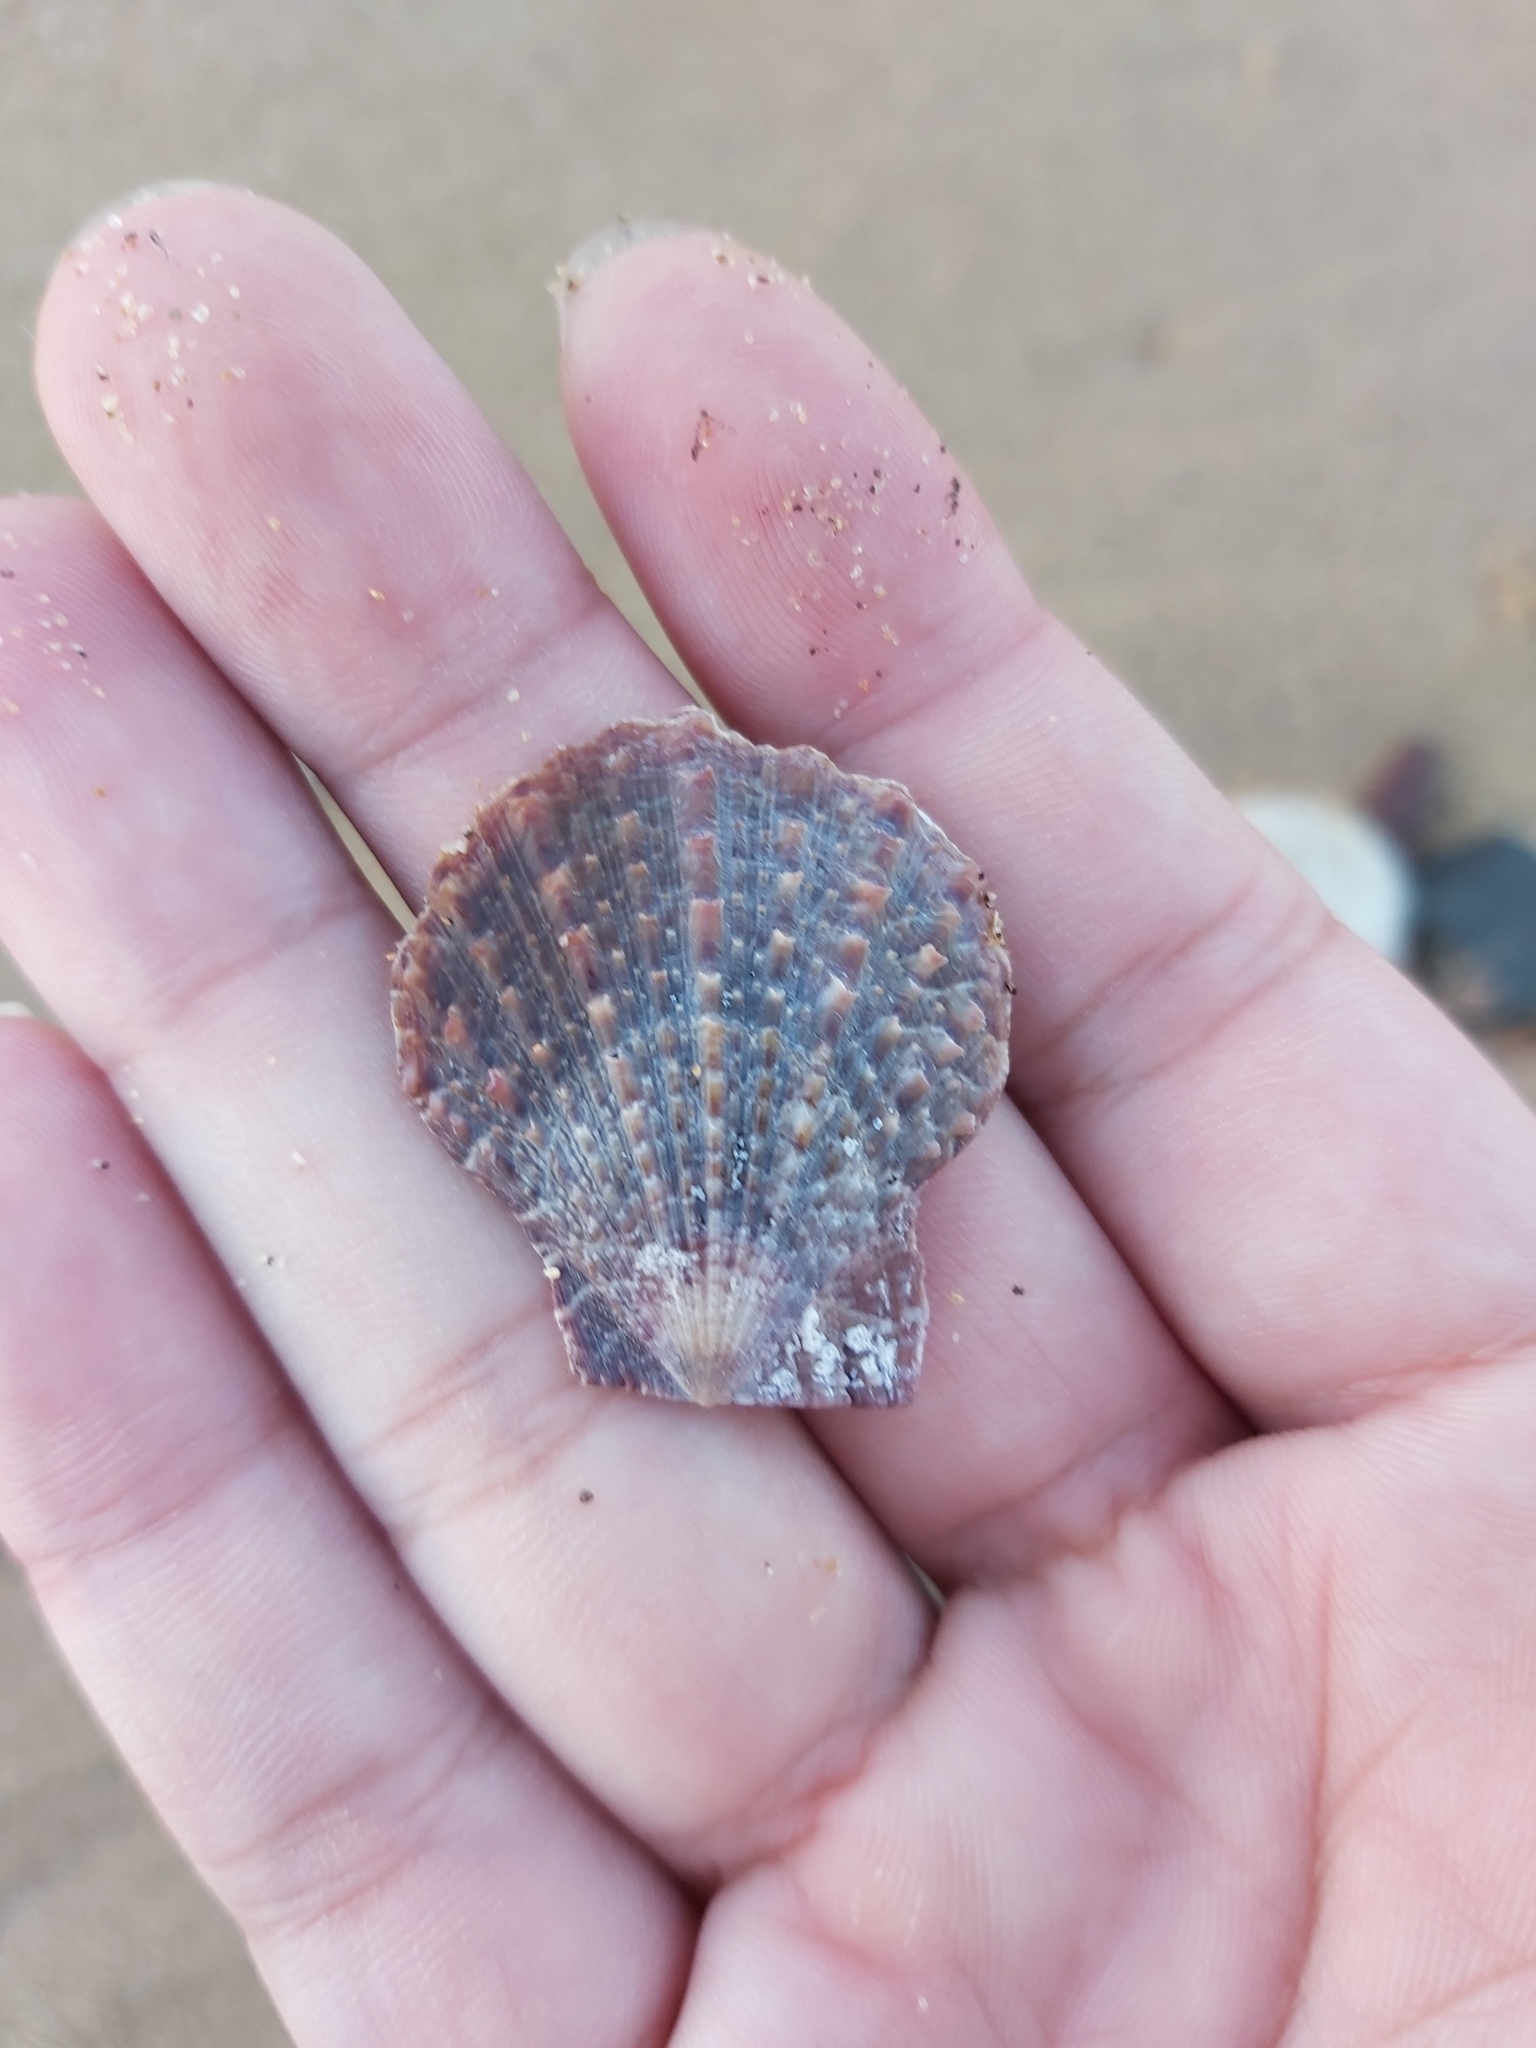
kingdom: Animalia
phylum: Mollusca
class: Bivalvia
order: Pectinida
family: Pectinidae
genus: Scaeochlamys
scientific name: Scaeochlamys livida
